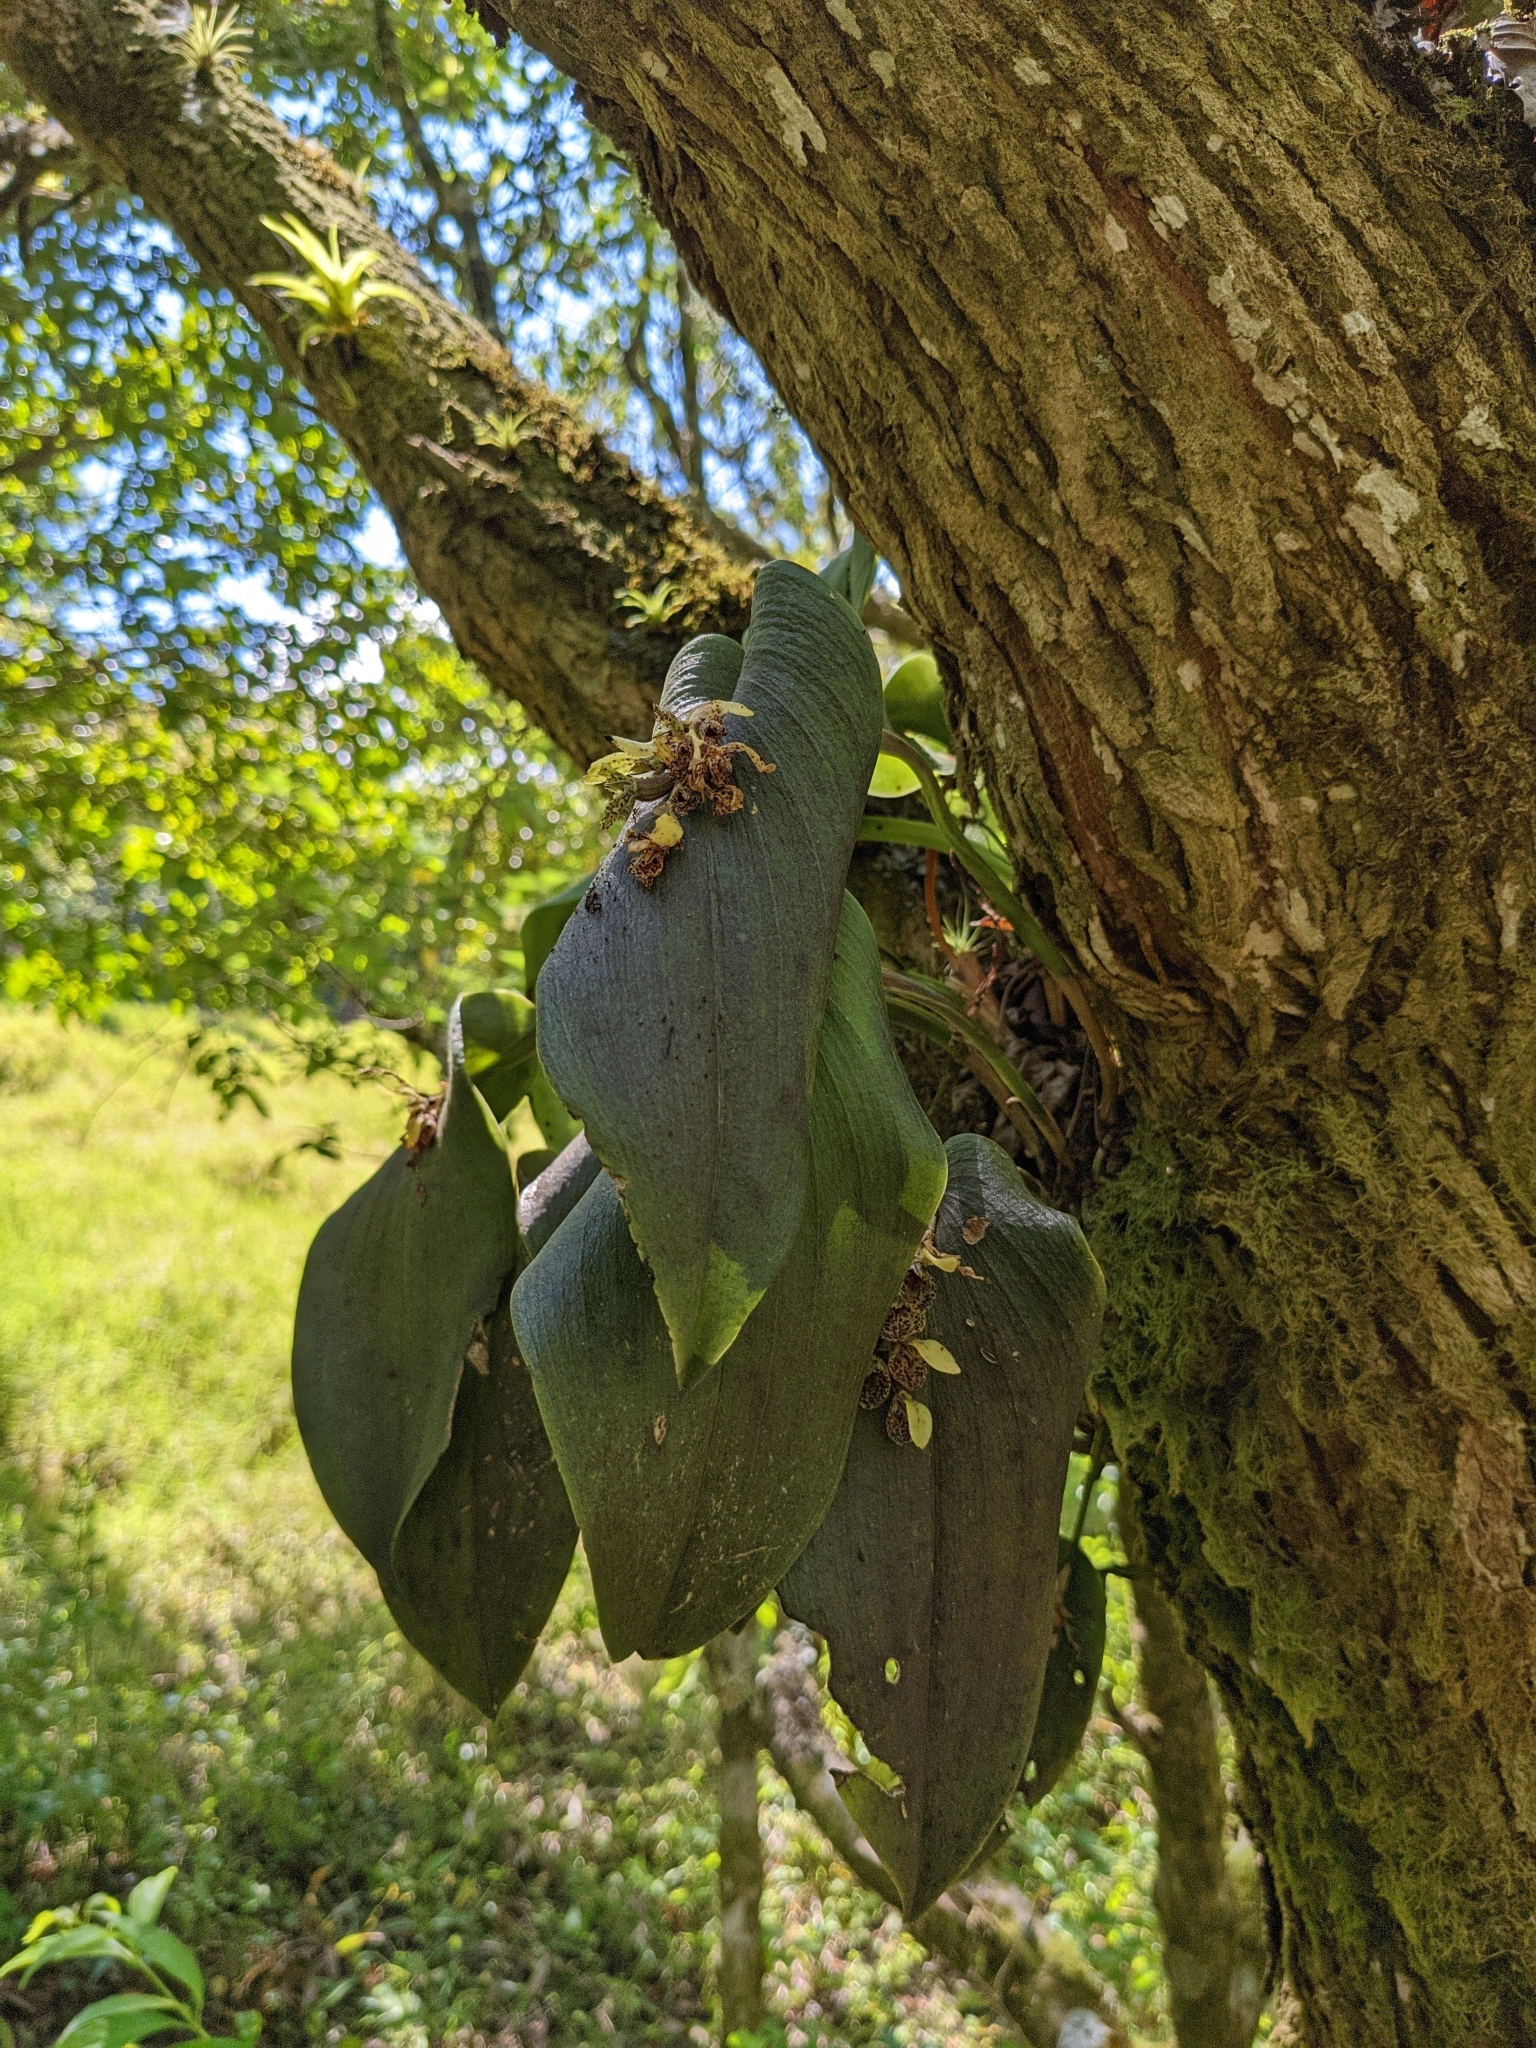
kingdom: Plantae
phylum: Tracheophyta
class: Liliopsida
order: Asparagales
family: Orchidaceae
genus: Acianthera
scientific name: Acianthera cogniauxiana
